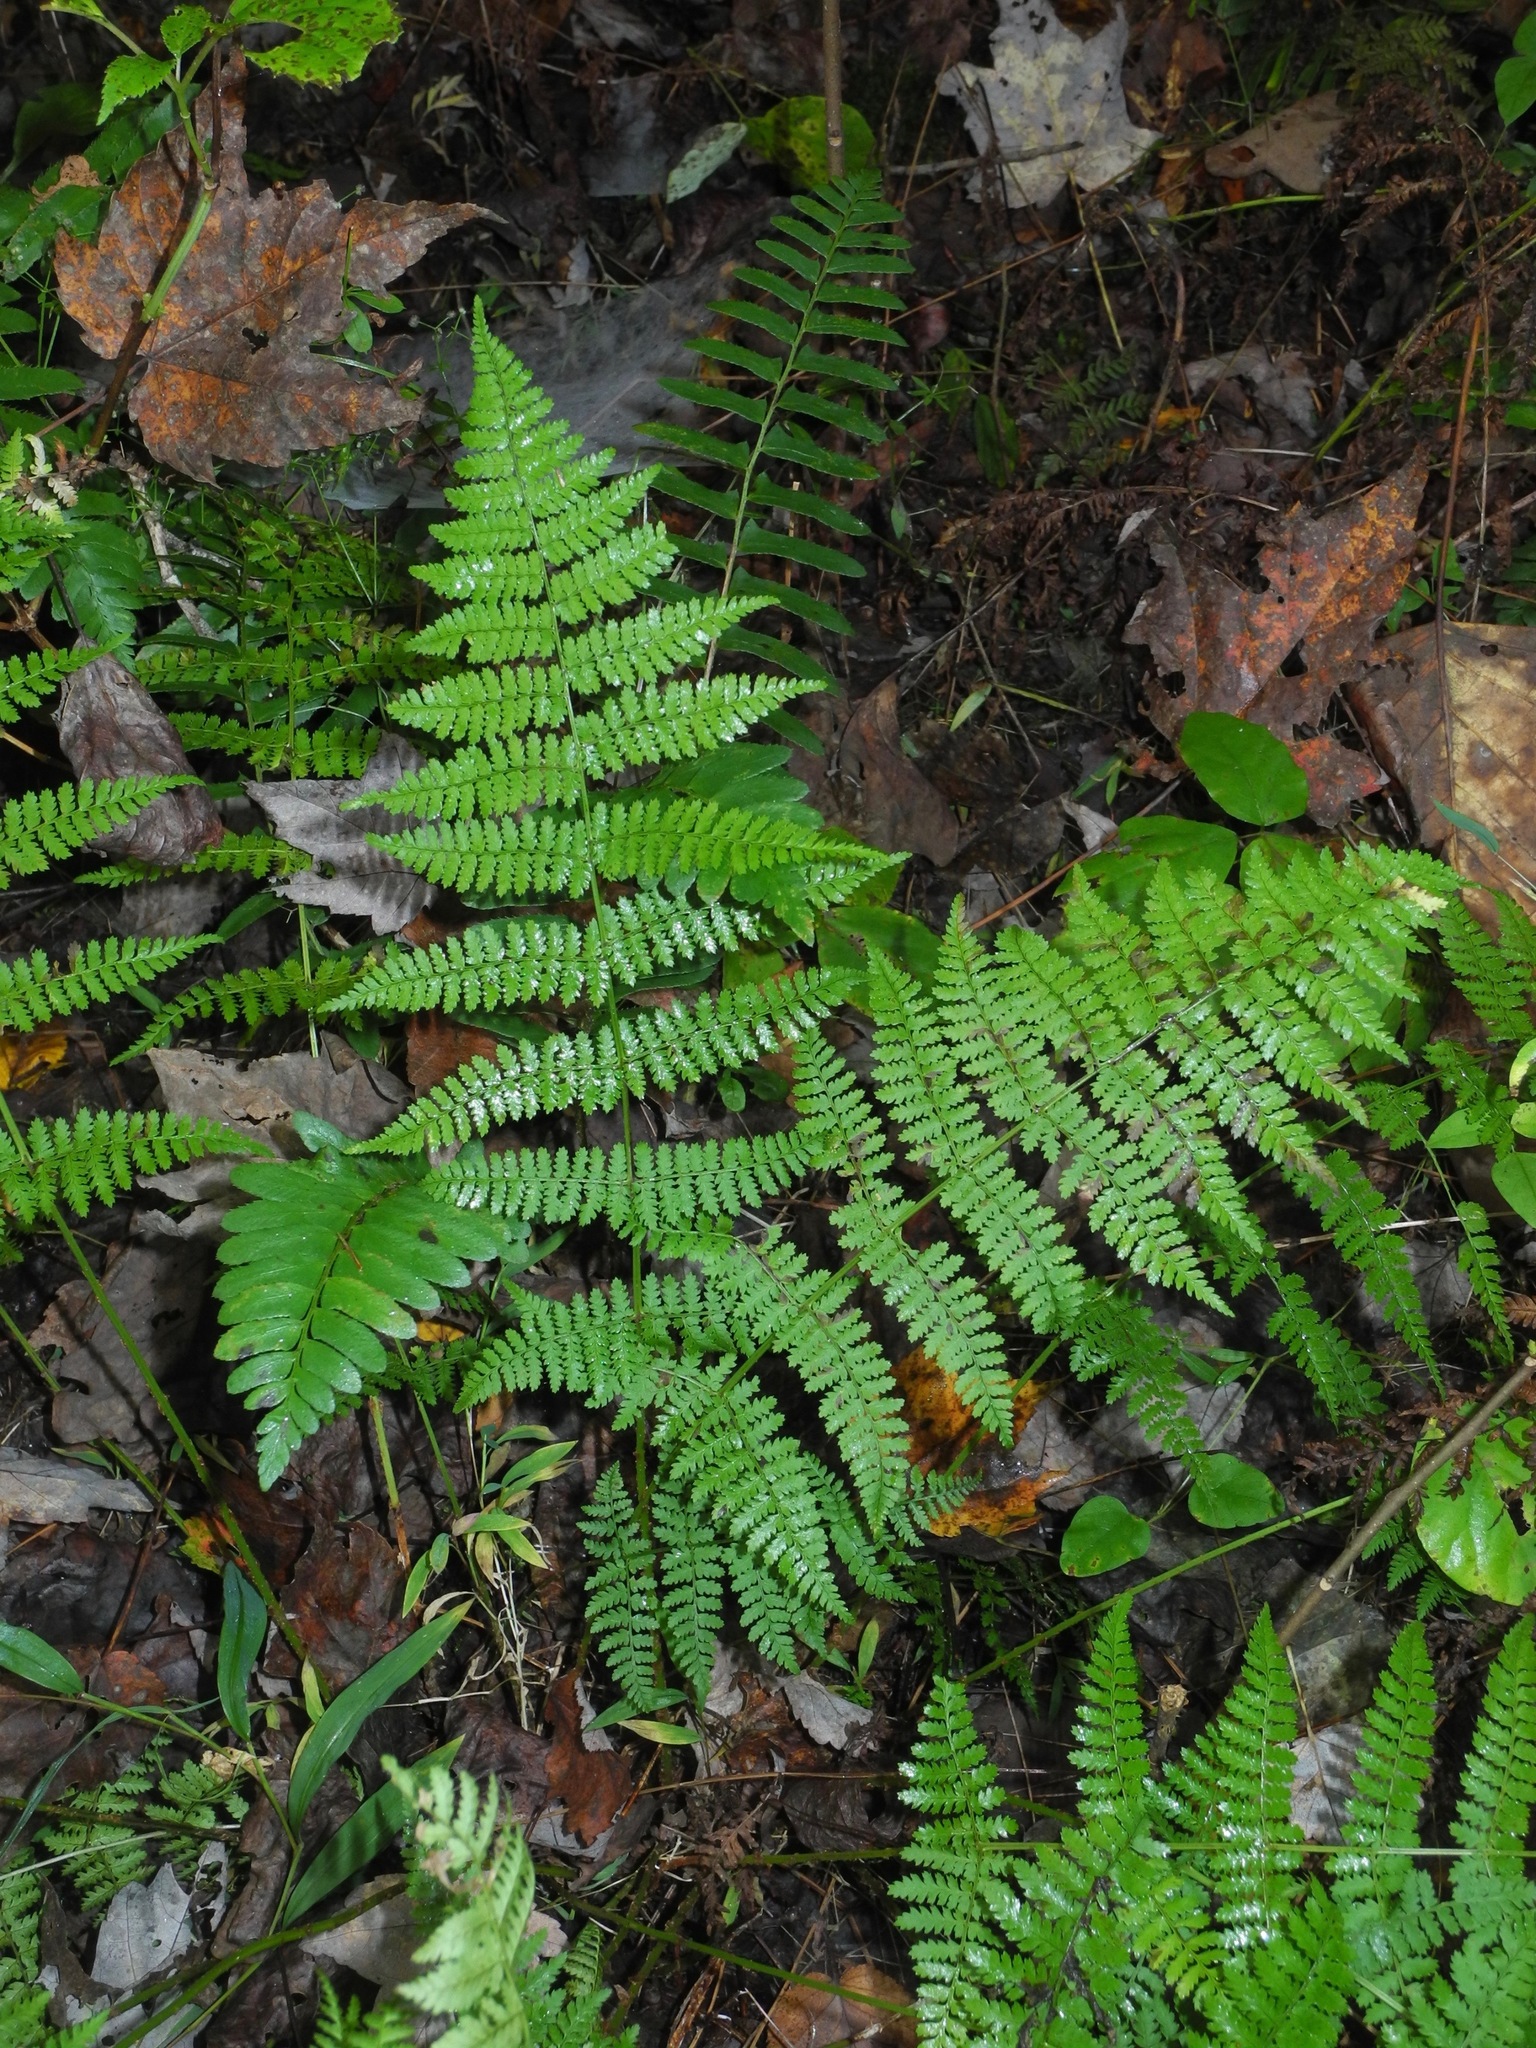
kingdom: Plantae
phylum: Tracheophyta
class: Polypodiopsida
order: Polypodiales
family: Dryopteridaceae
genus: Dryopteris
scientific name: Dryopteris intermedia
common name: Evergreen wood fern
